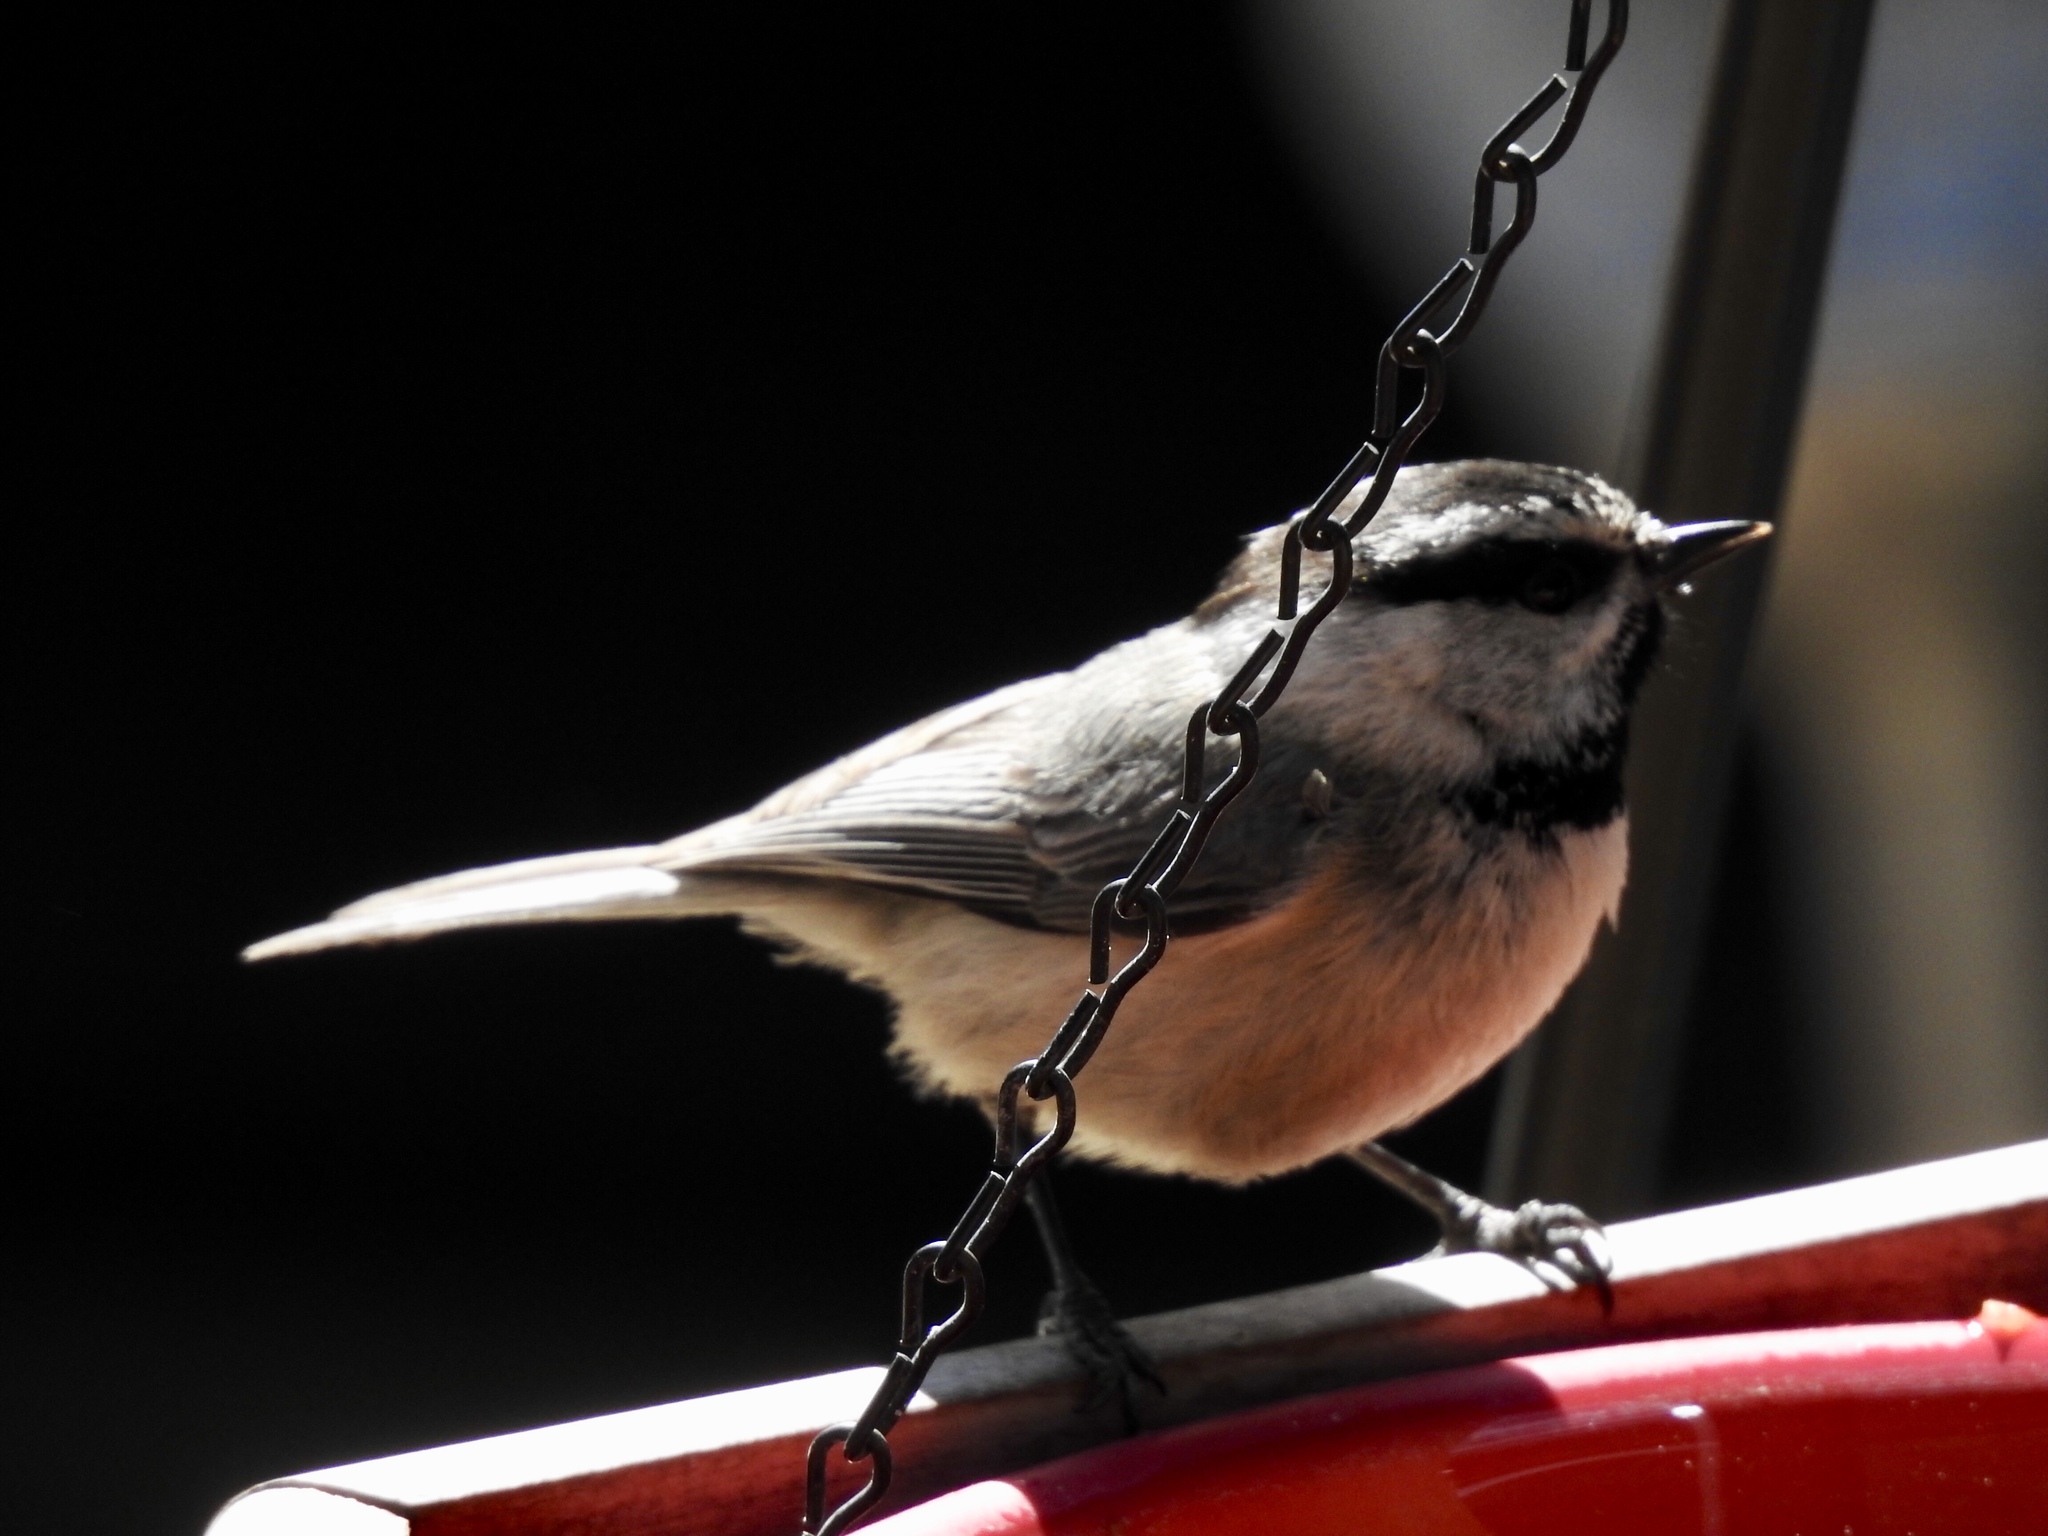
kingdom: Animalia
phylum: Chordata
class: Aves
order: Passeriformes
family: Paridae
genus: Poecile
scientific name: Poecile gambeli
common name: Mountain chickadee
